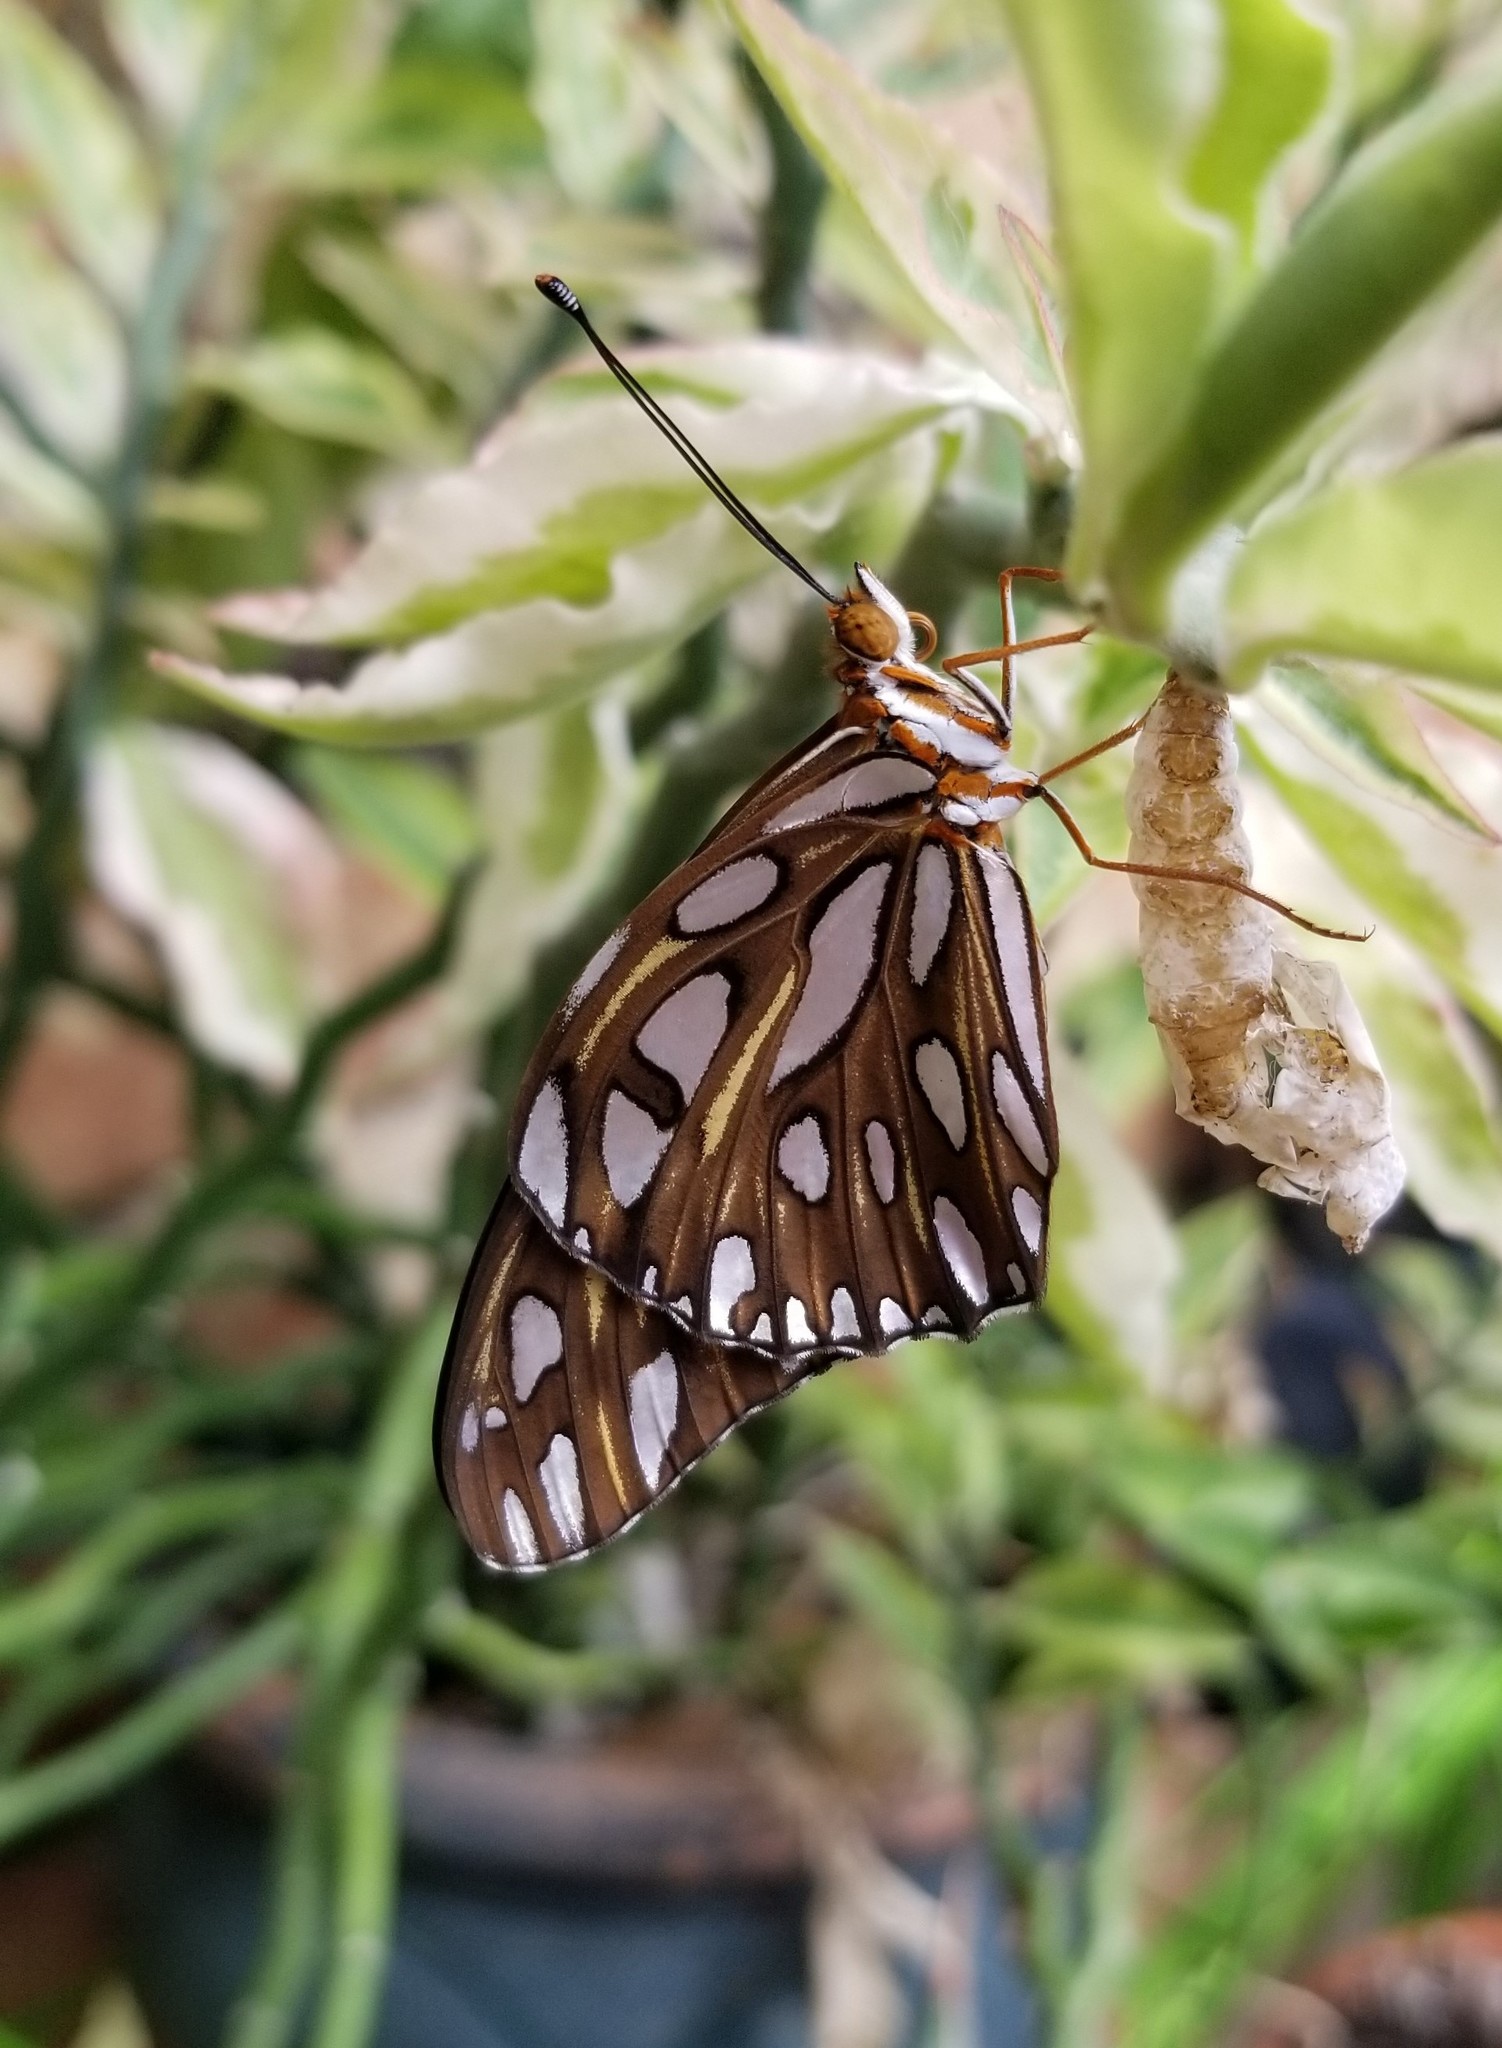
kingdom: Animalia
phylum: Arthropoda
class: Insecta
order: Lepidoptera
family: Nymphalidae
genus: Dione
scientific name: Dione vanillae
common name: Gulf fritillary
